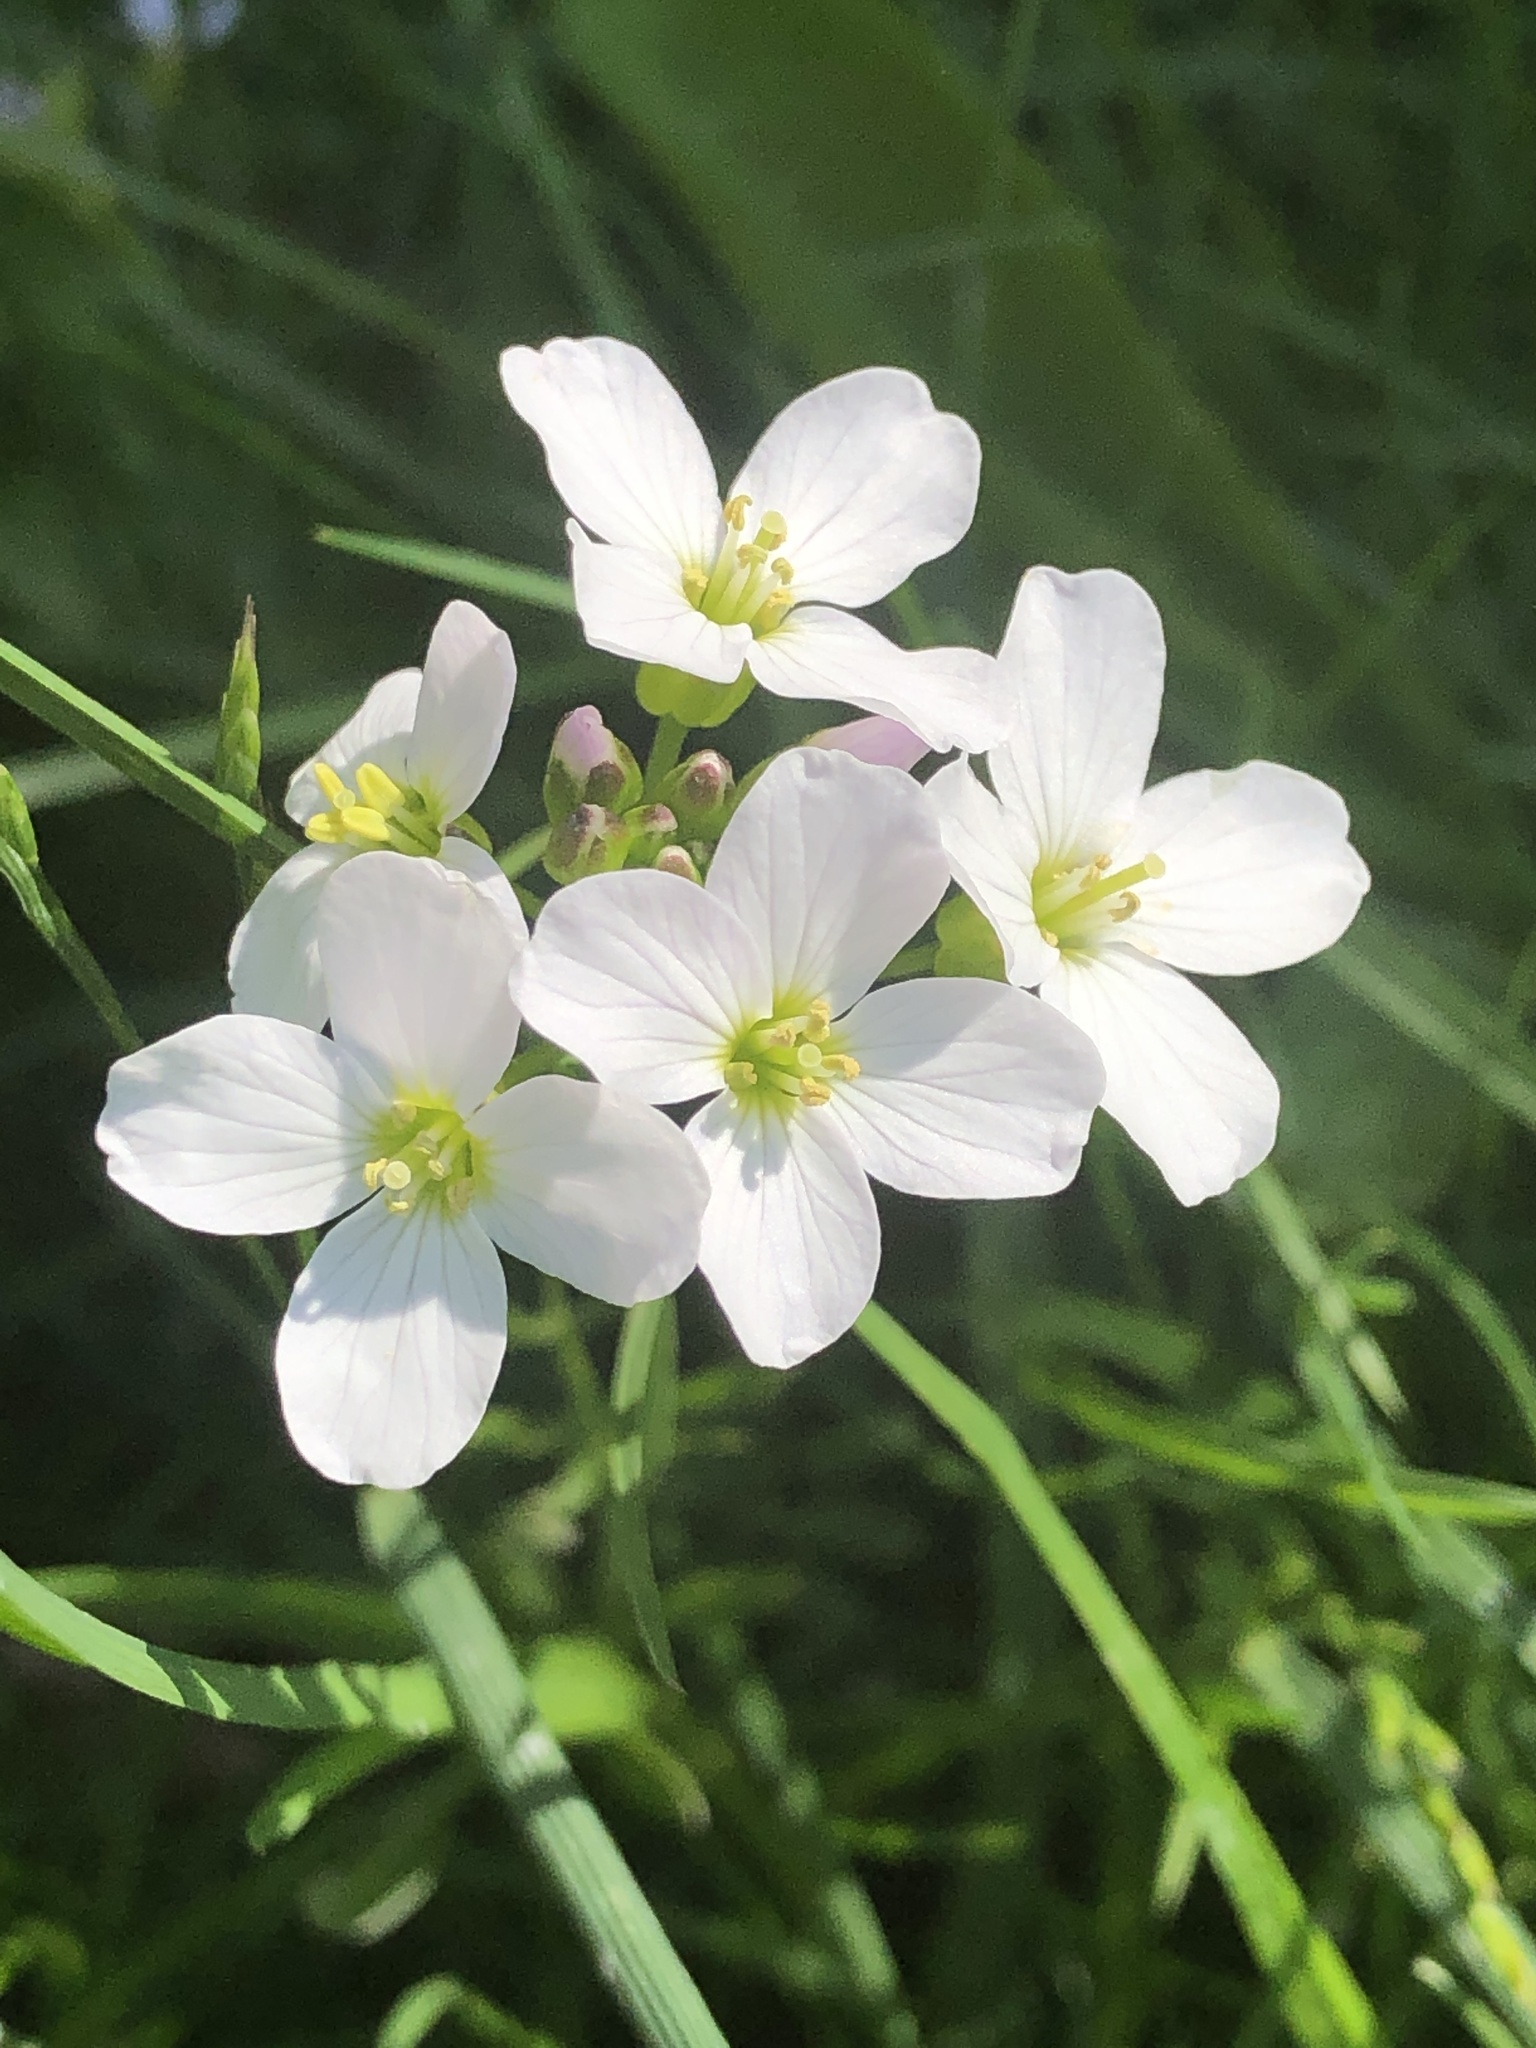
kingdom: Plantae
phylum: Tracheophyta
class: Magnoliopsida
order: Brassicales
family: Brassicaceae
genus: Cardamine
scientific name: Cardamine pratensis
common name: Cuckoo flower
